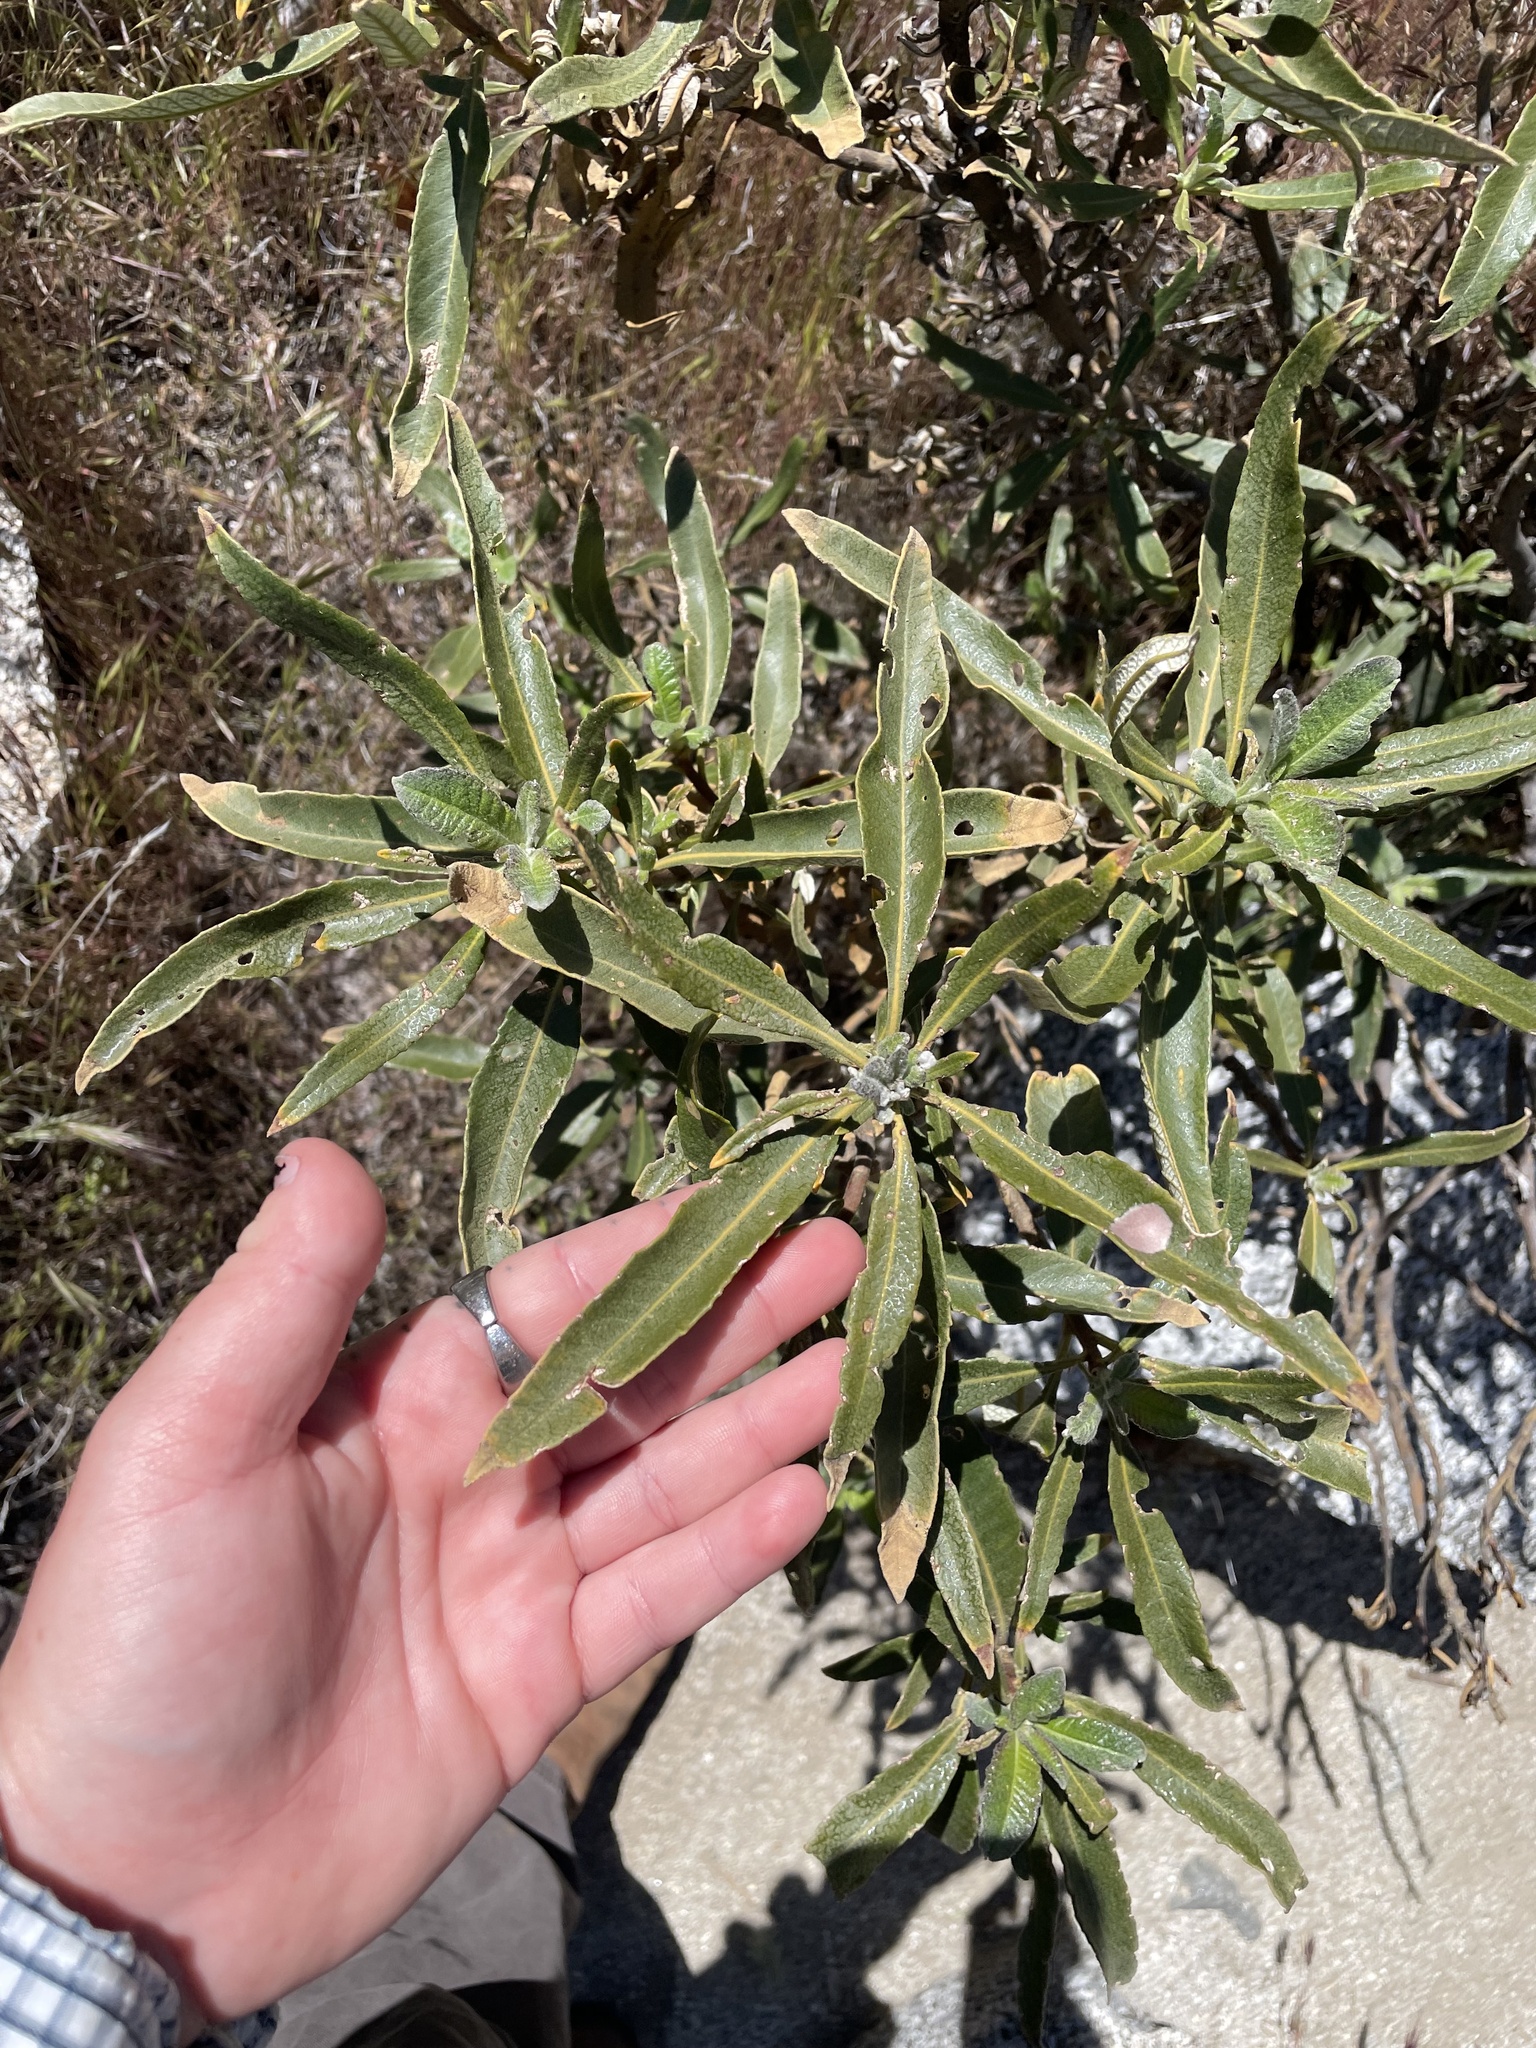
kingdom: Plantae
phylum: Tracheophyta
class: Magnoliopsida
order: Boraginales
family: Namaceae
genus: Eriodictyon
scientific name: Eriodictyon trichocalyx
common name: Hairy yerba-santa
